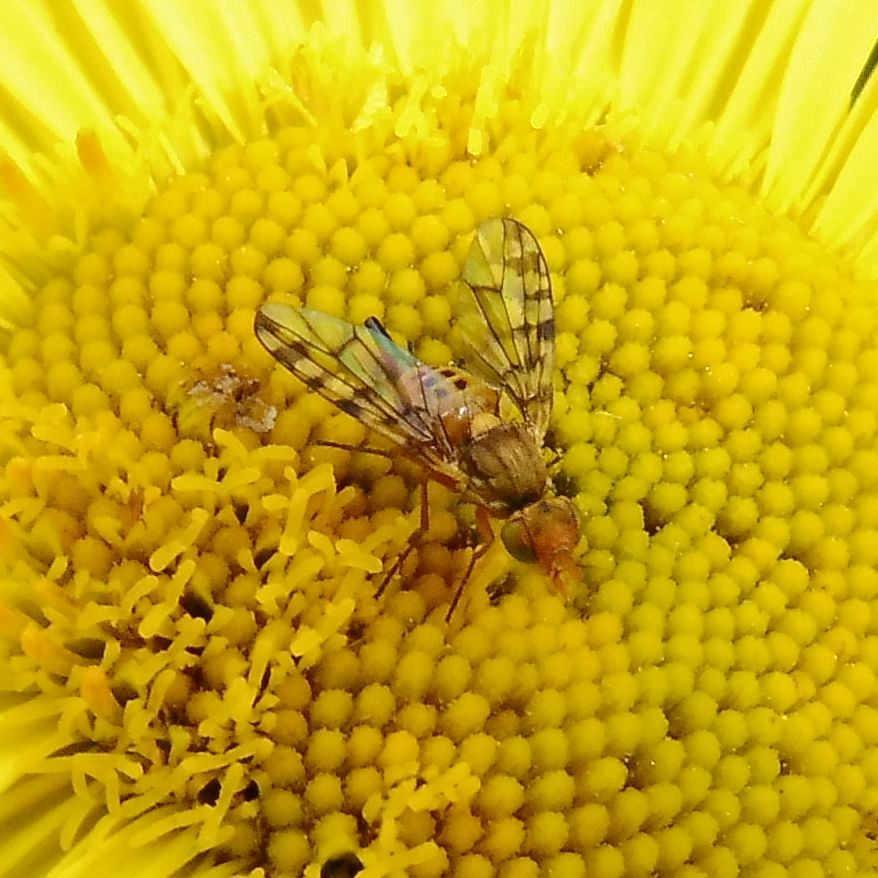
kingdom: Animalia
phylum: Arthropoda
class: Insecta
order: Diptera
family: Tephritidae
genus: Myopites
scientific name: Myopites inulaedyssentericae
